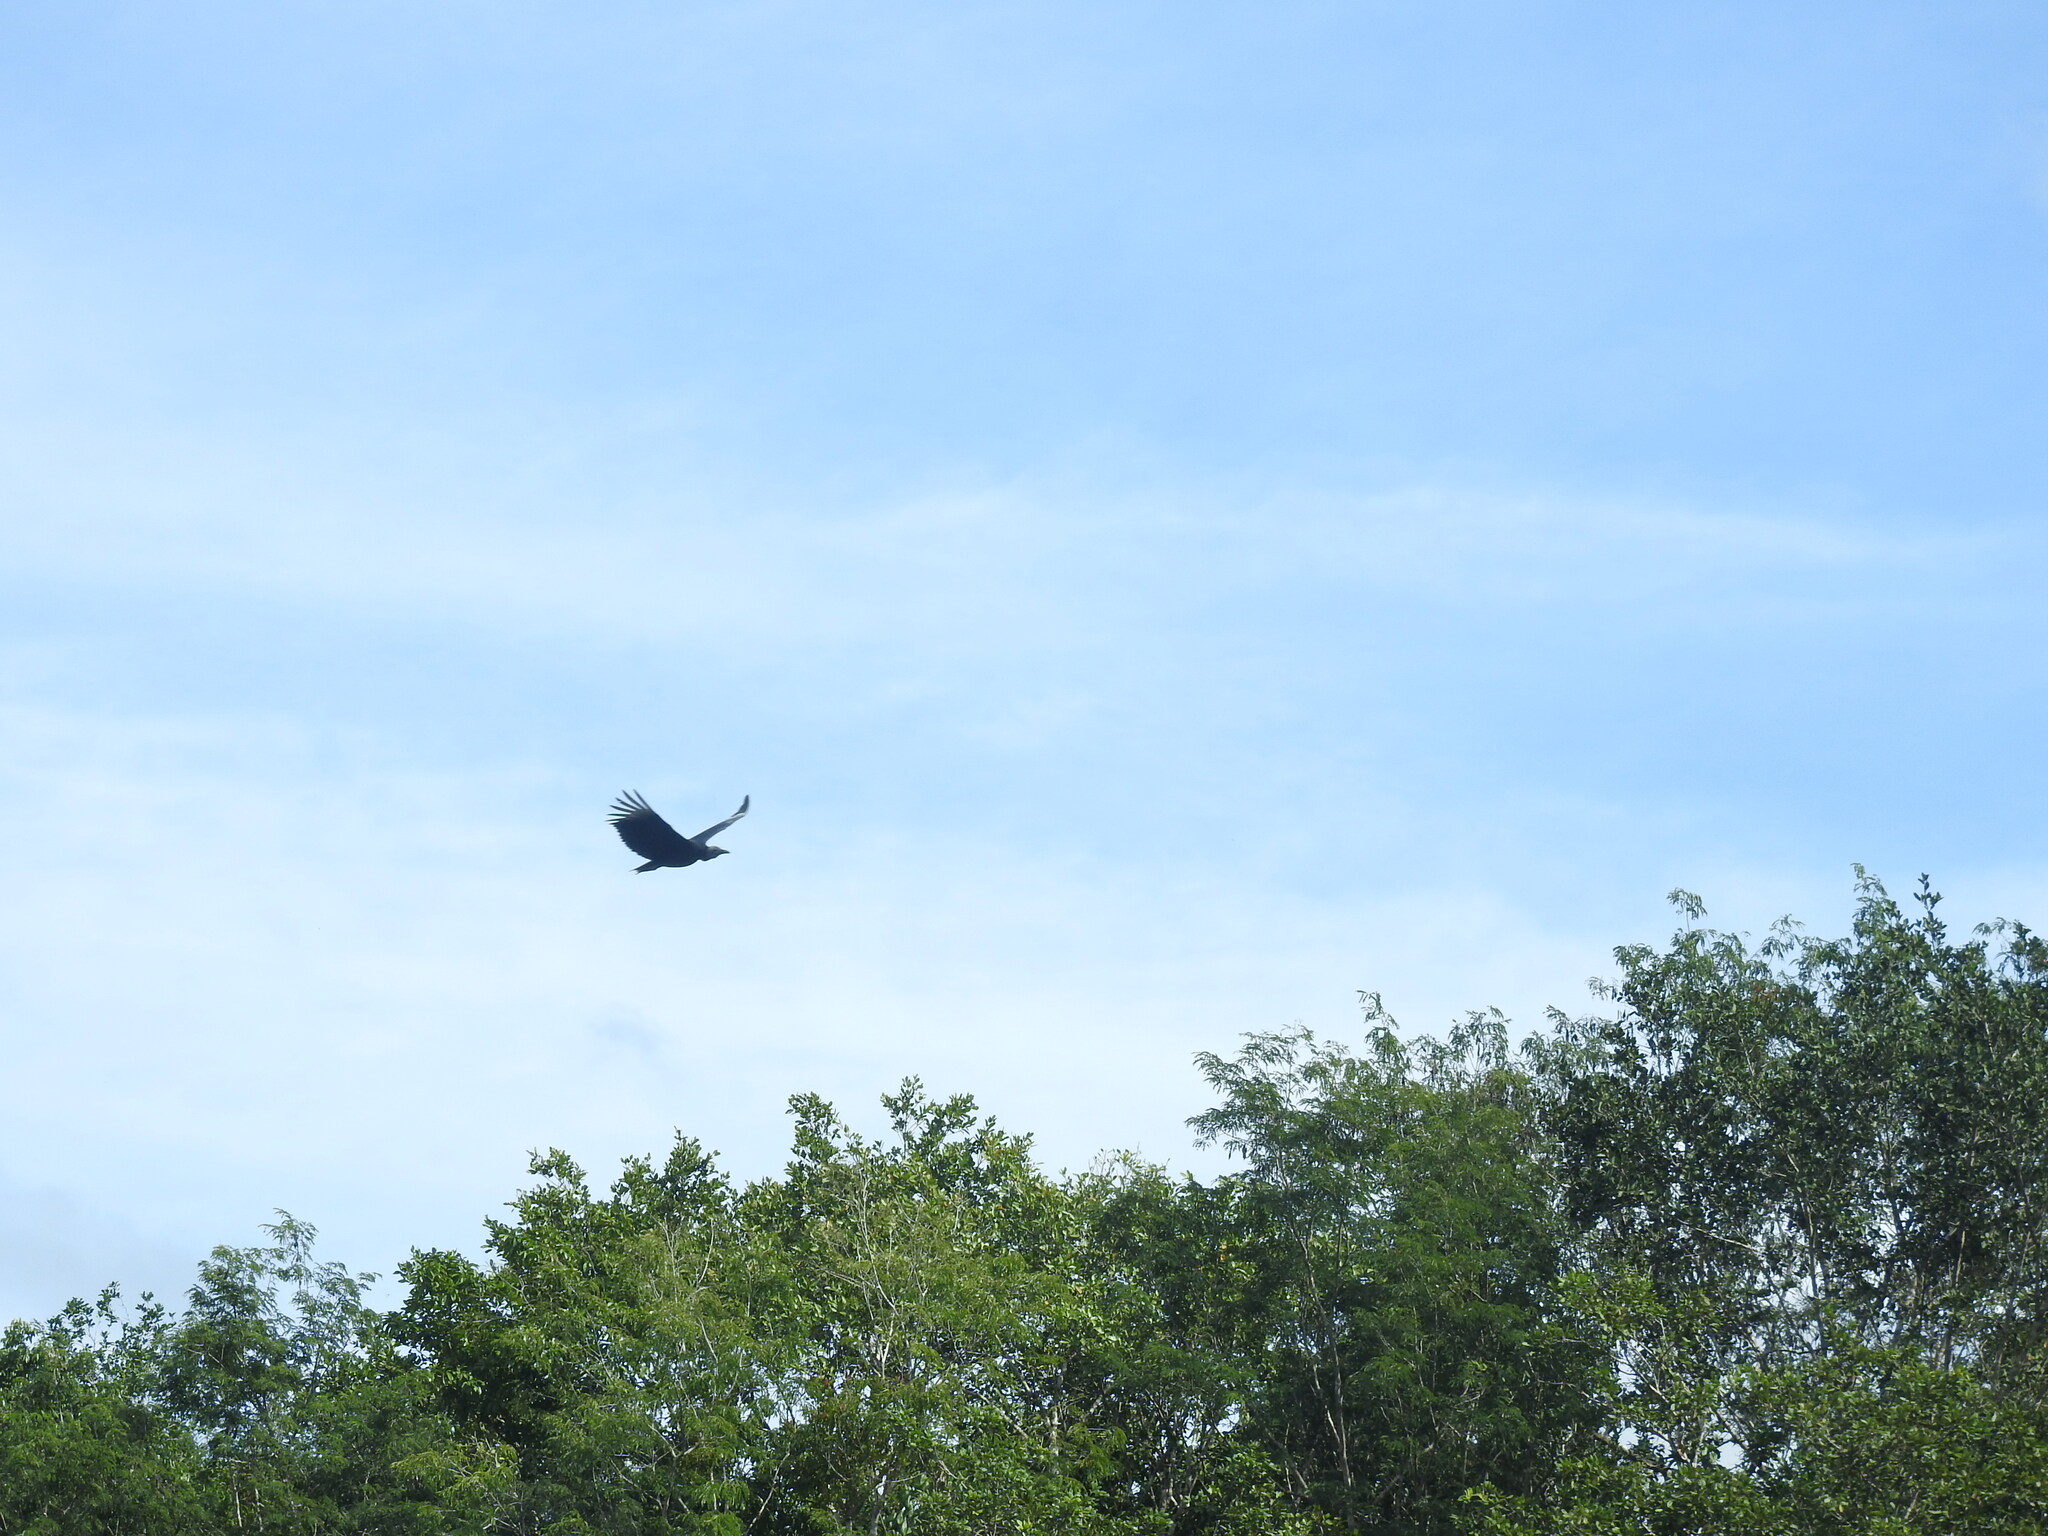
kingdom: Animalia
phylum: Chordata
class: Aves
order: Accipitriformes
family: Cathartidae
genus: Coragyps
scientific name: Coragyps atratus
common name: Black vulture
